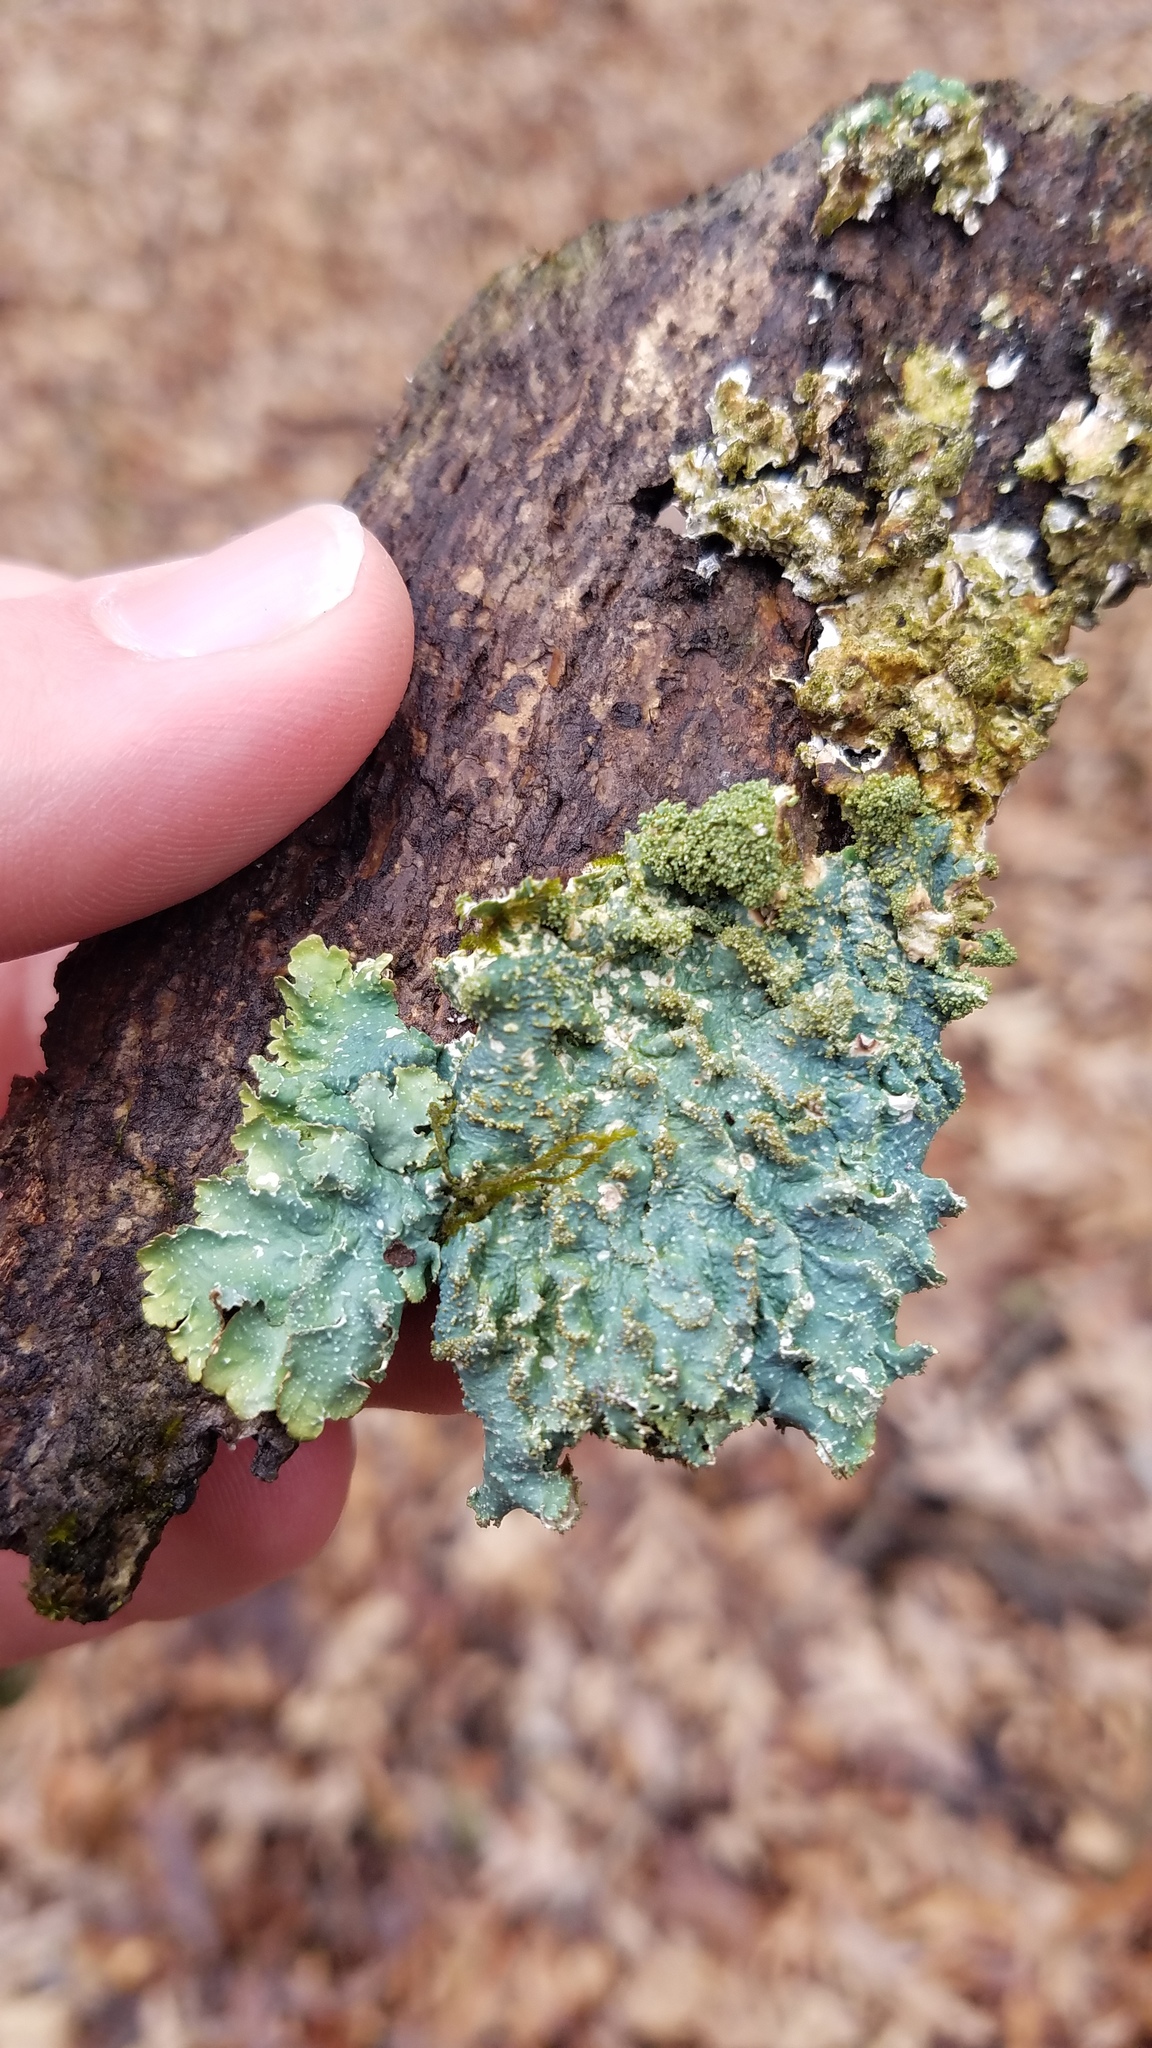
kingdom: Fungi
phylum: Ascomycota
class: Lecanoromycetes
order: Lecanorales
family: Parmeliaceae
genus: Punctelia
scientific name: Punctelia rudecta
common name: Rough speckled shield lichen
